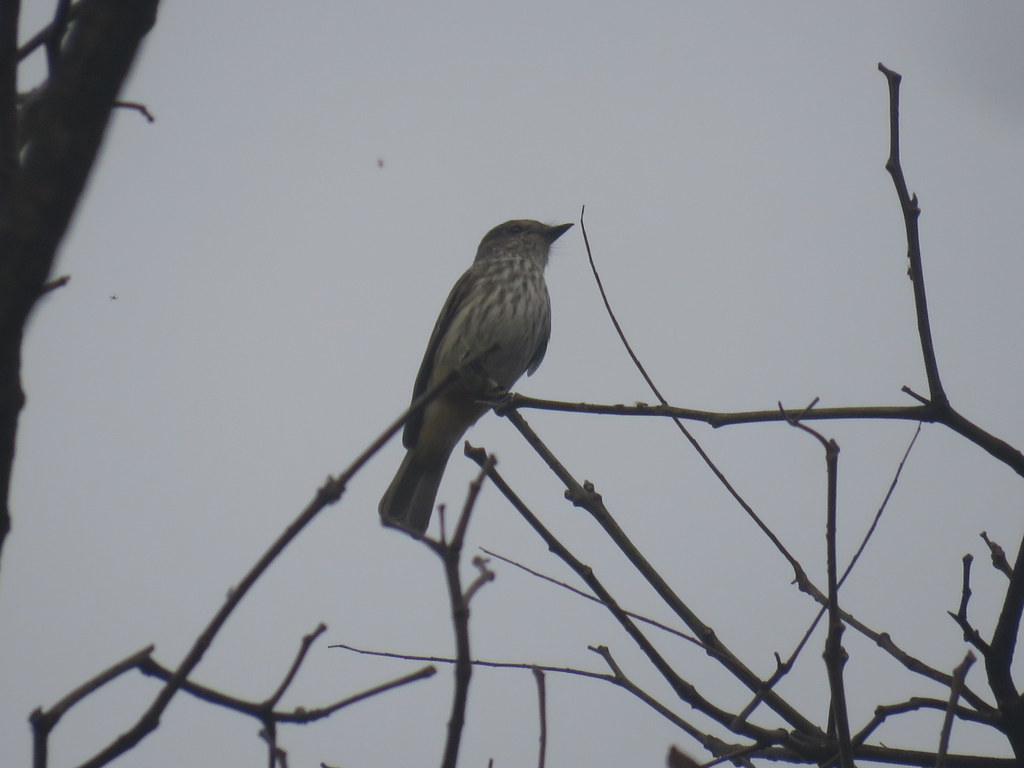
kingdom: Animalia
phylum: Chordata
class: Aves
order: Passeriformes
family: Tyrannidae
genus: Pyrocephalus
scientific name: Pyrocephalus rubinus
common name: Vermilion flycatcher
